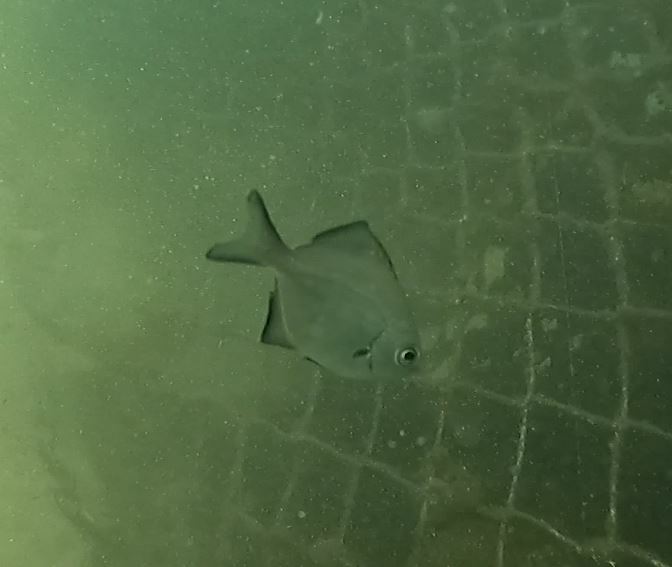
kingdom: Animalia
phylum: Chordata
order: Perciformes
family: Kyphosidae
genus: Scorpis
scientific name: Scorpis lineolata
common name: Sweep
